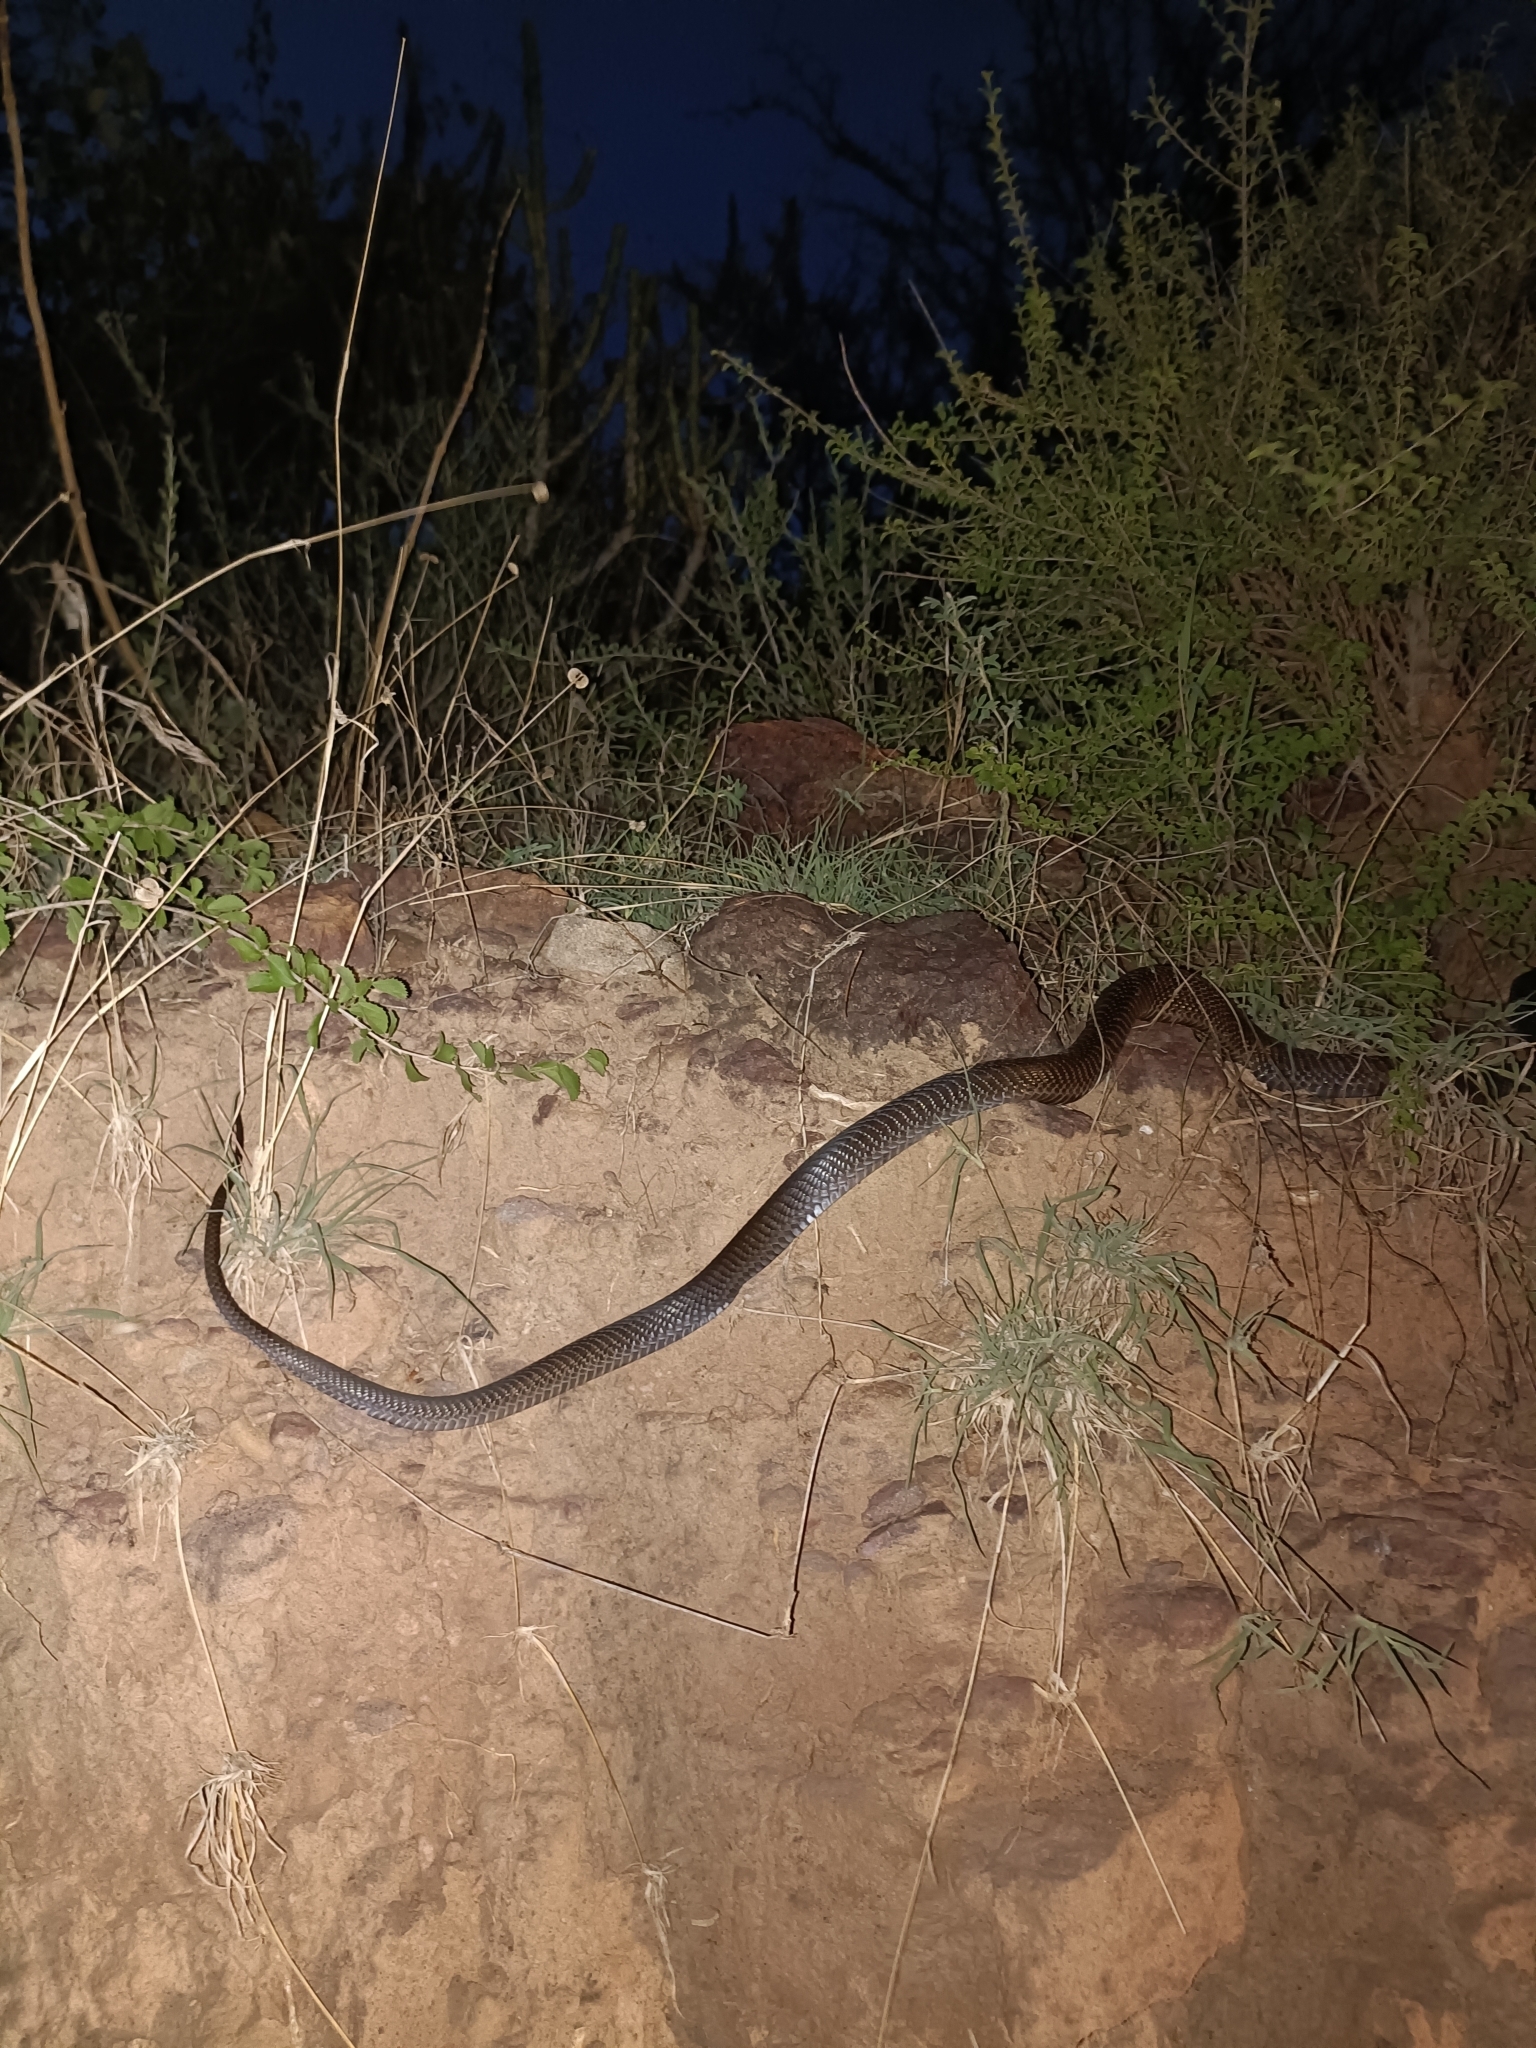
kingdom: Animalia
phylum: Chordata
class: Squamata
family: Elapidae
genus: Naja
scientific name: Naja naja
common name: Indian cobra
